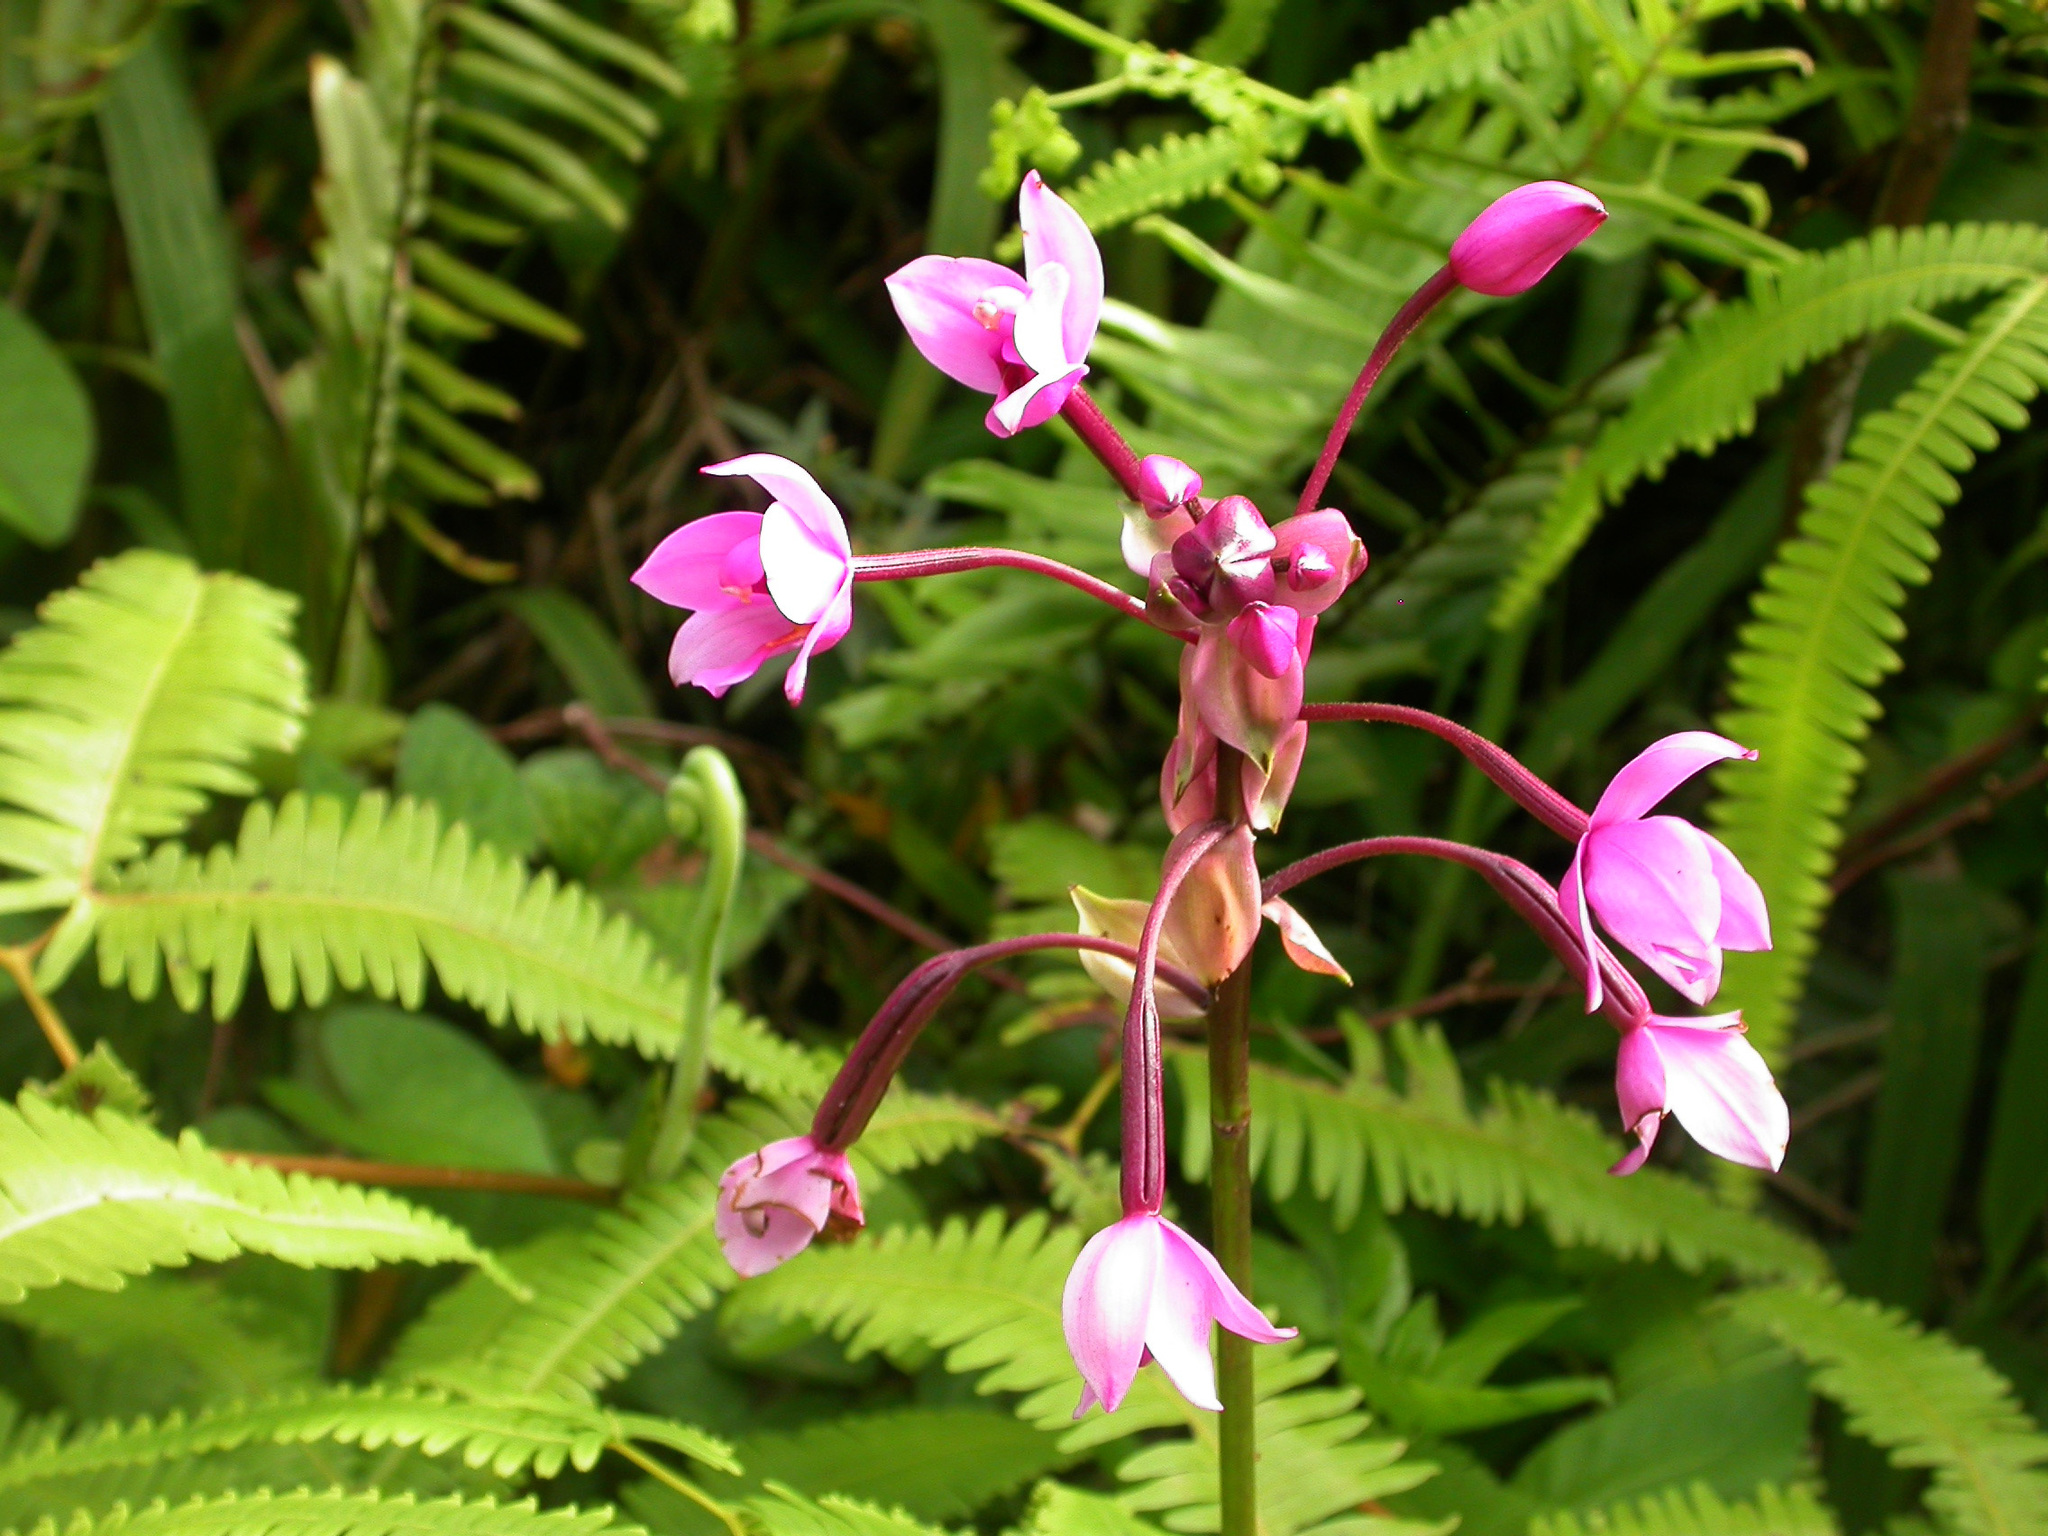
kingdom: Plantae
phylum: Tracheophyta
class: Liliopsida
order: Asparagales
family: Orchidaceae
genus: Spathoglottis
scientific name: Spathoglottis plicata
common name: Philippine ground orchid
